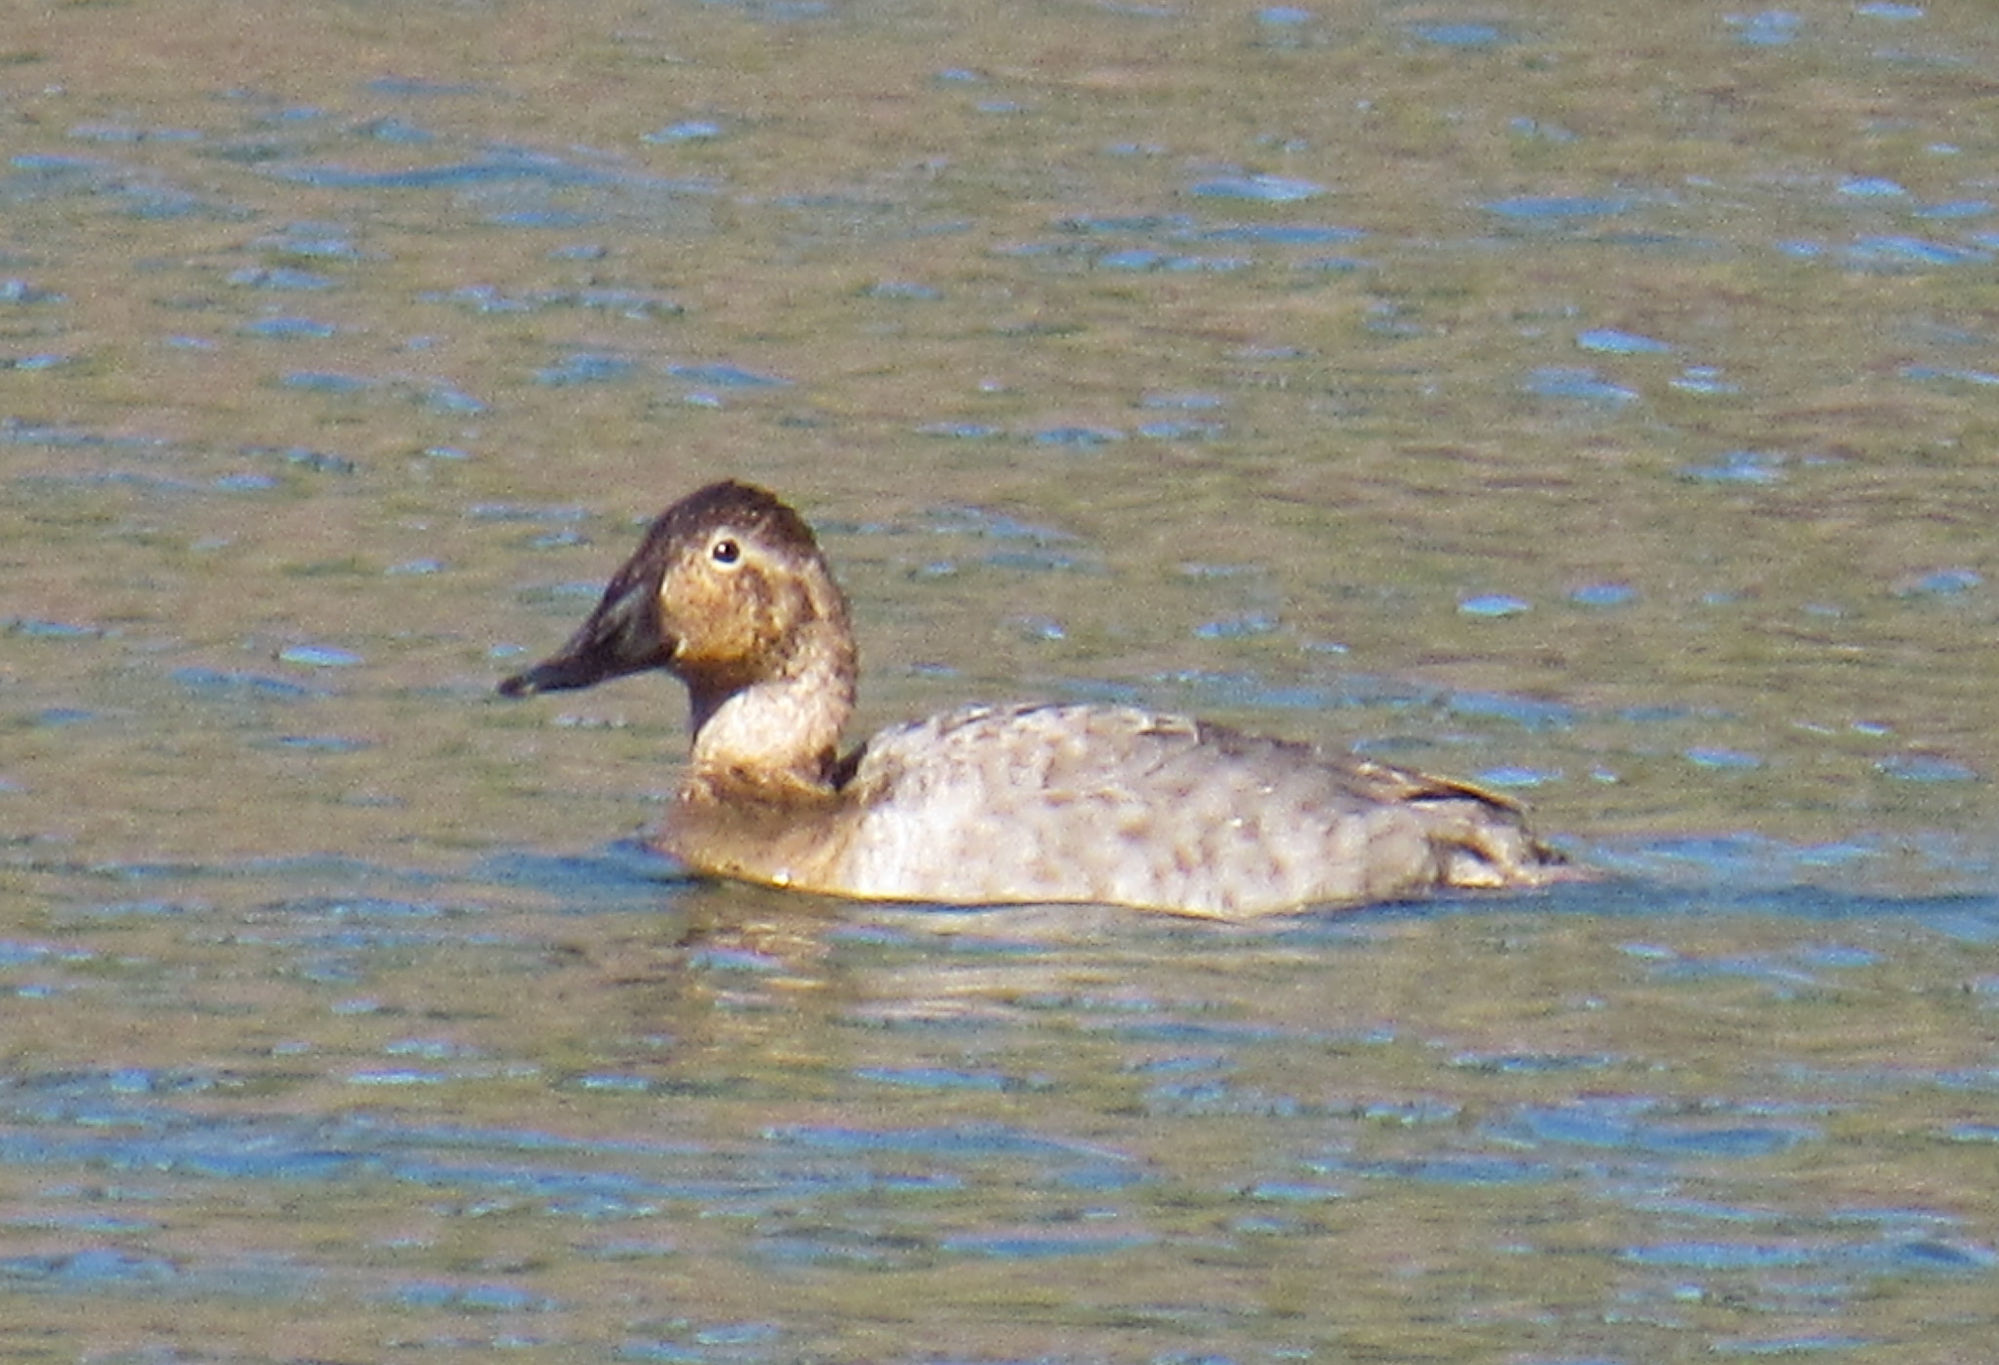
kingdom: Animalia
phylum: Chordata
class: Aves
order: Anseriformes
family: Anatidae
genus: Aythya
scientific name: Aythya valisineria
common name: Canvasback
